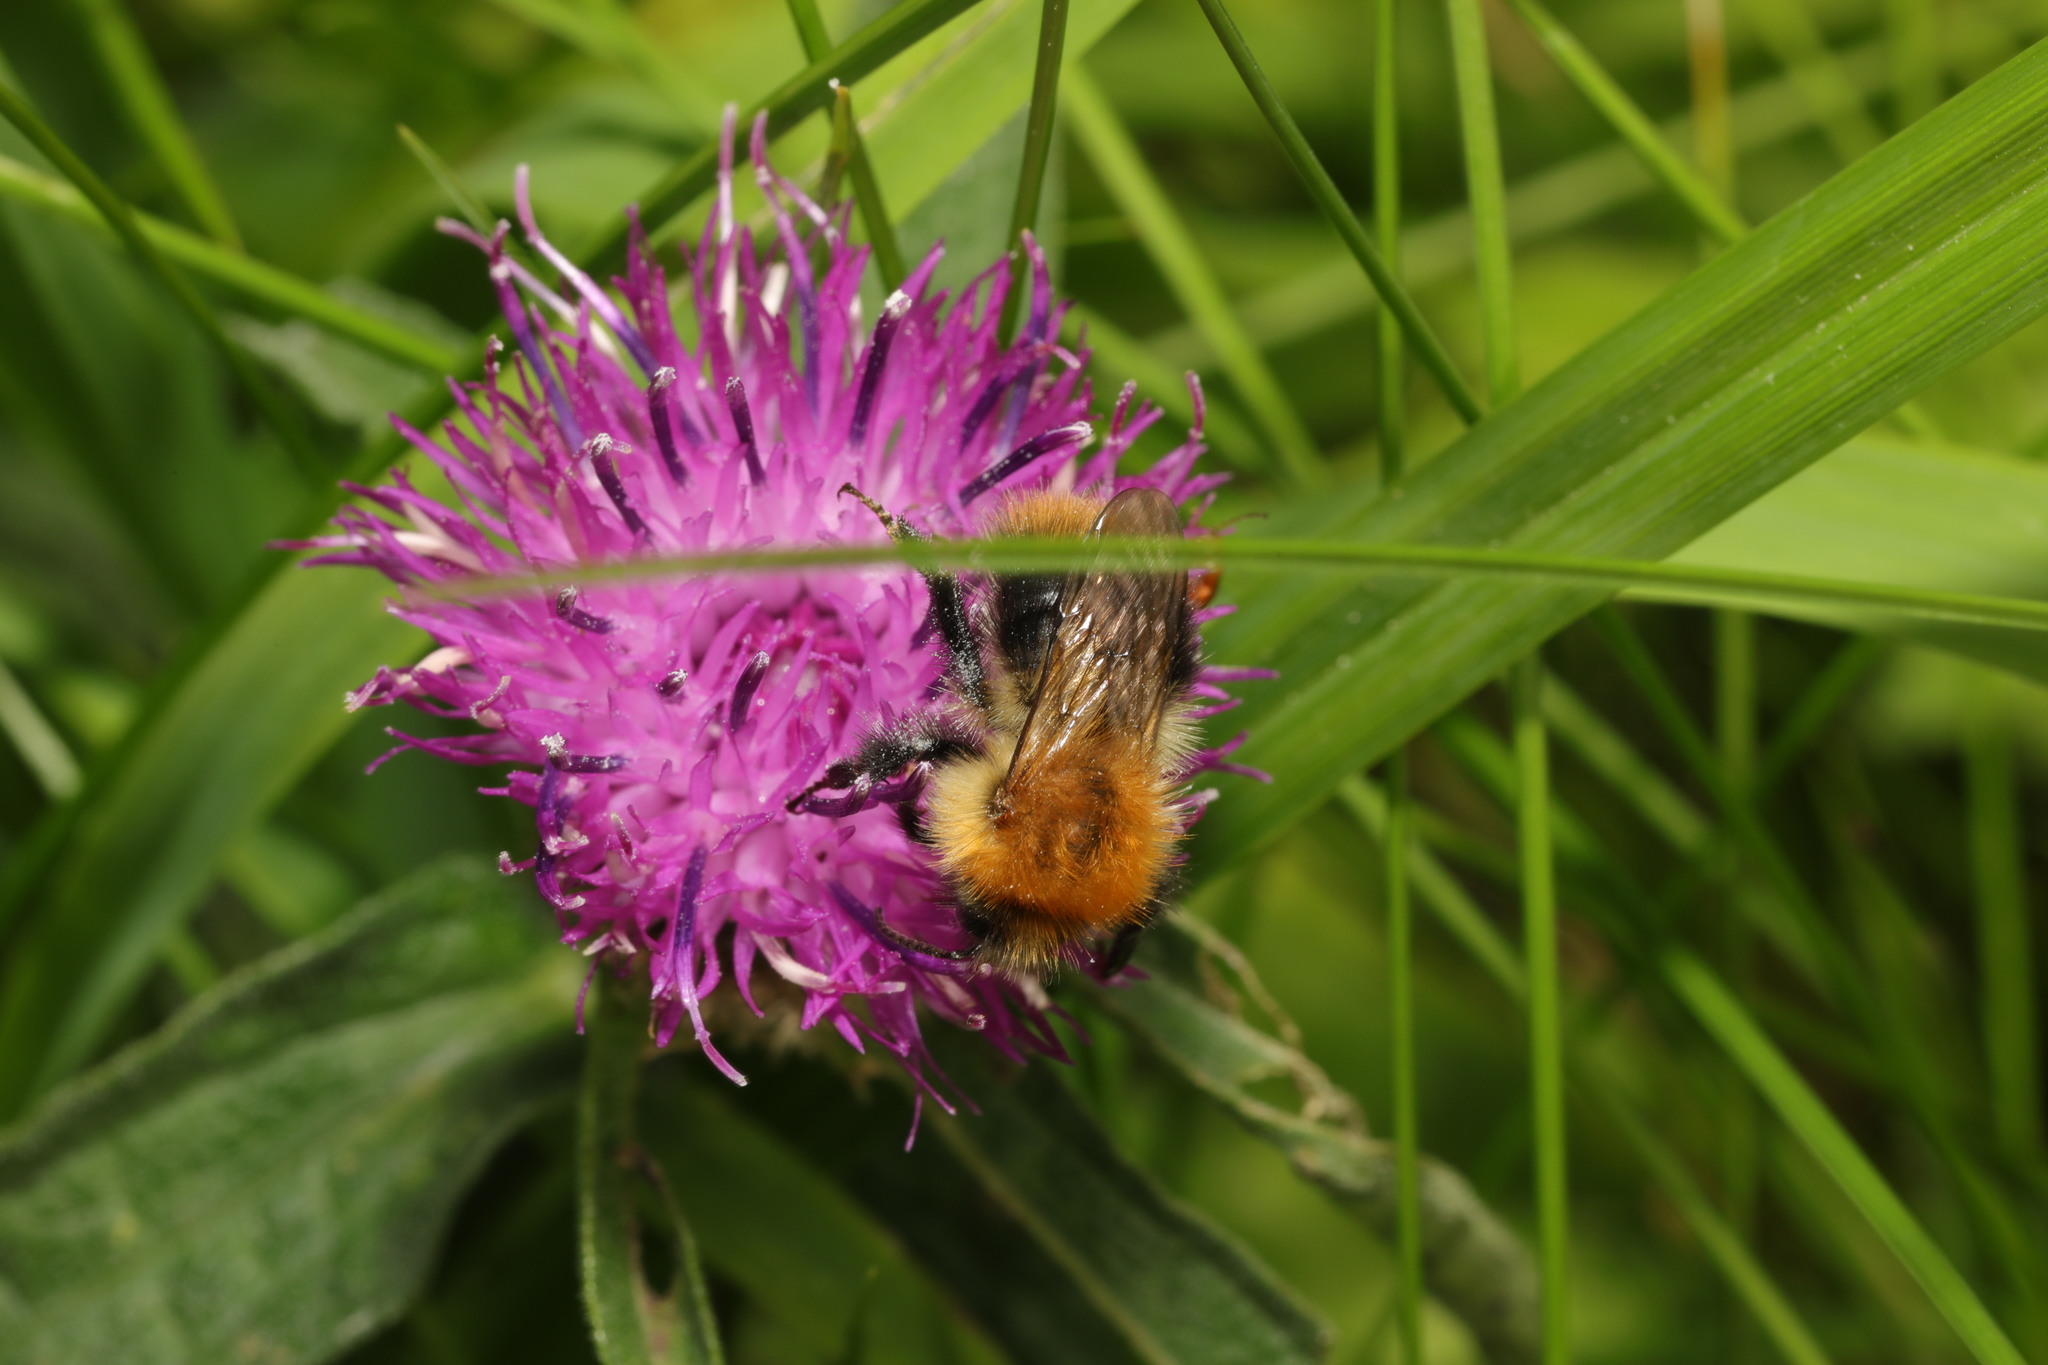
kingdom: Animalia
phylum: Arthropoda
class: Insecta
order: Hymenoptera
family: Apidae
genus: Bombus
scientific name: Bombus pascuorum
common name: Common carder bee
